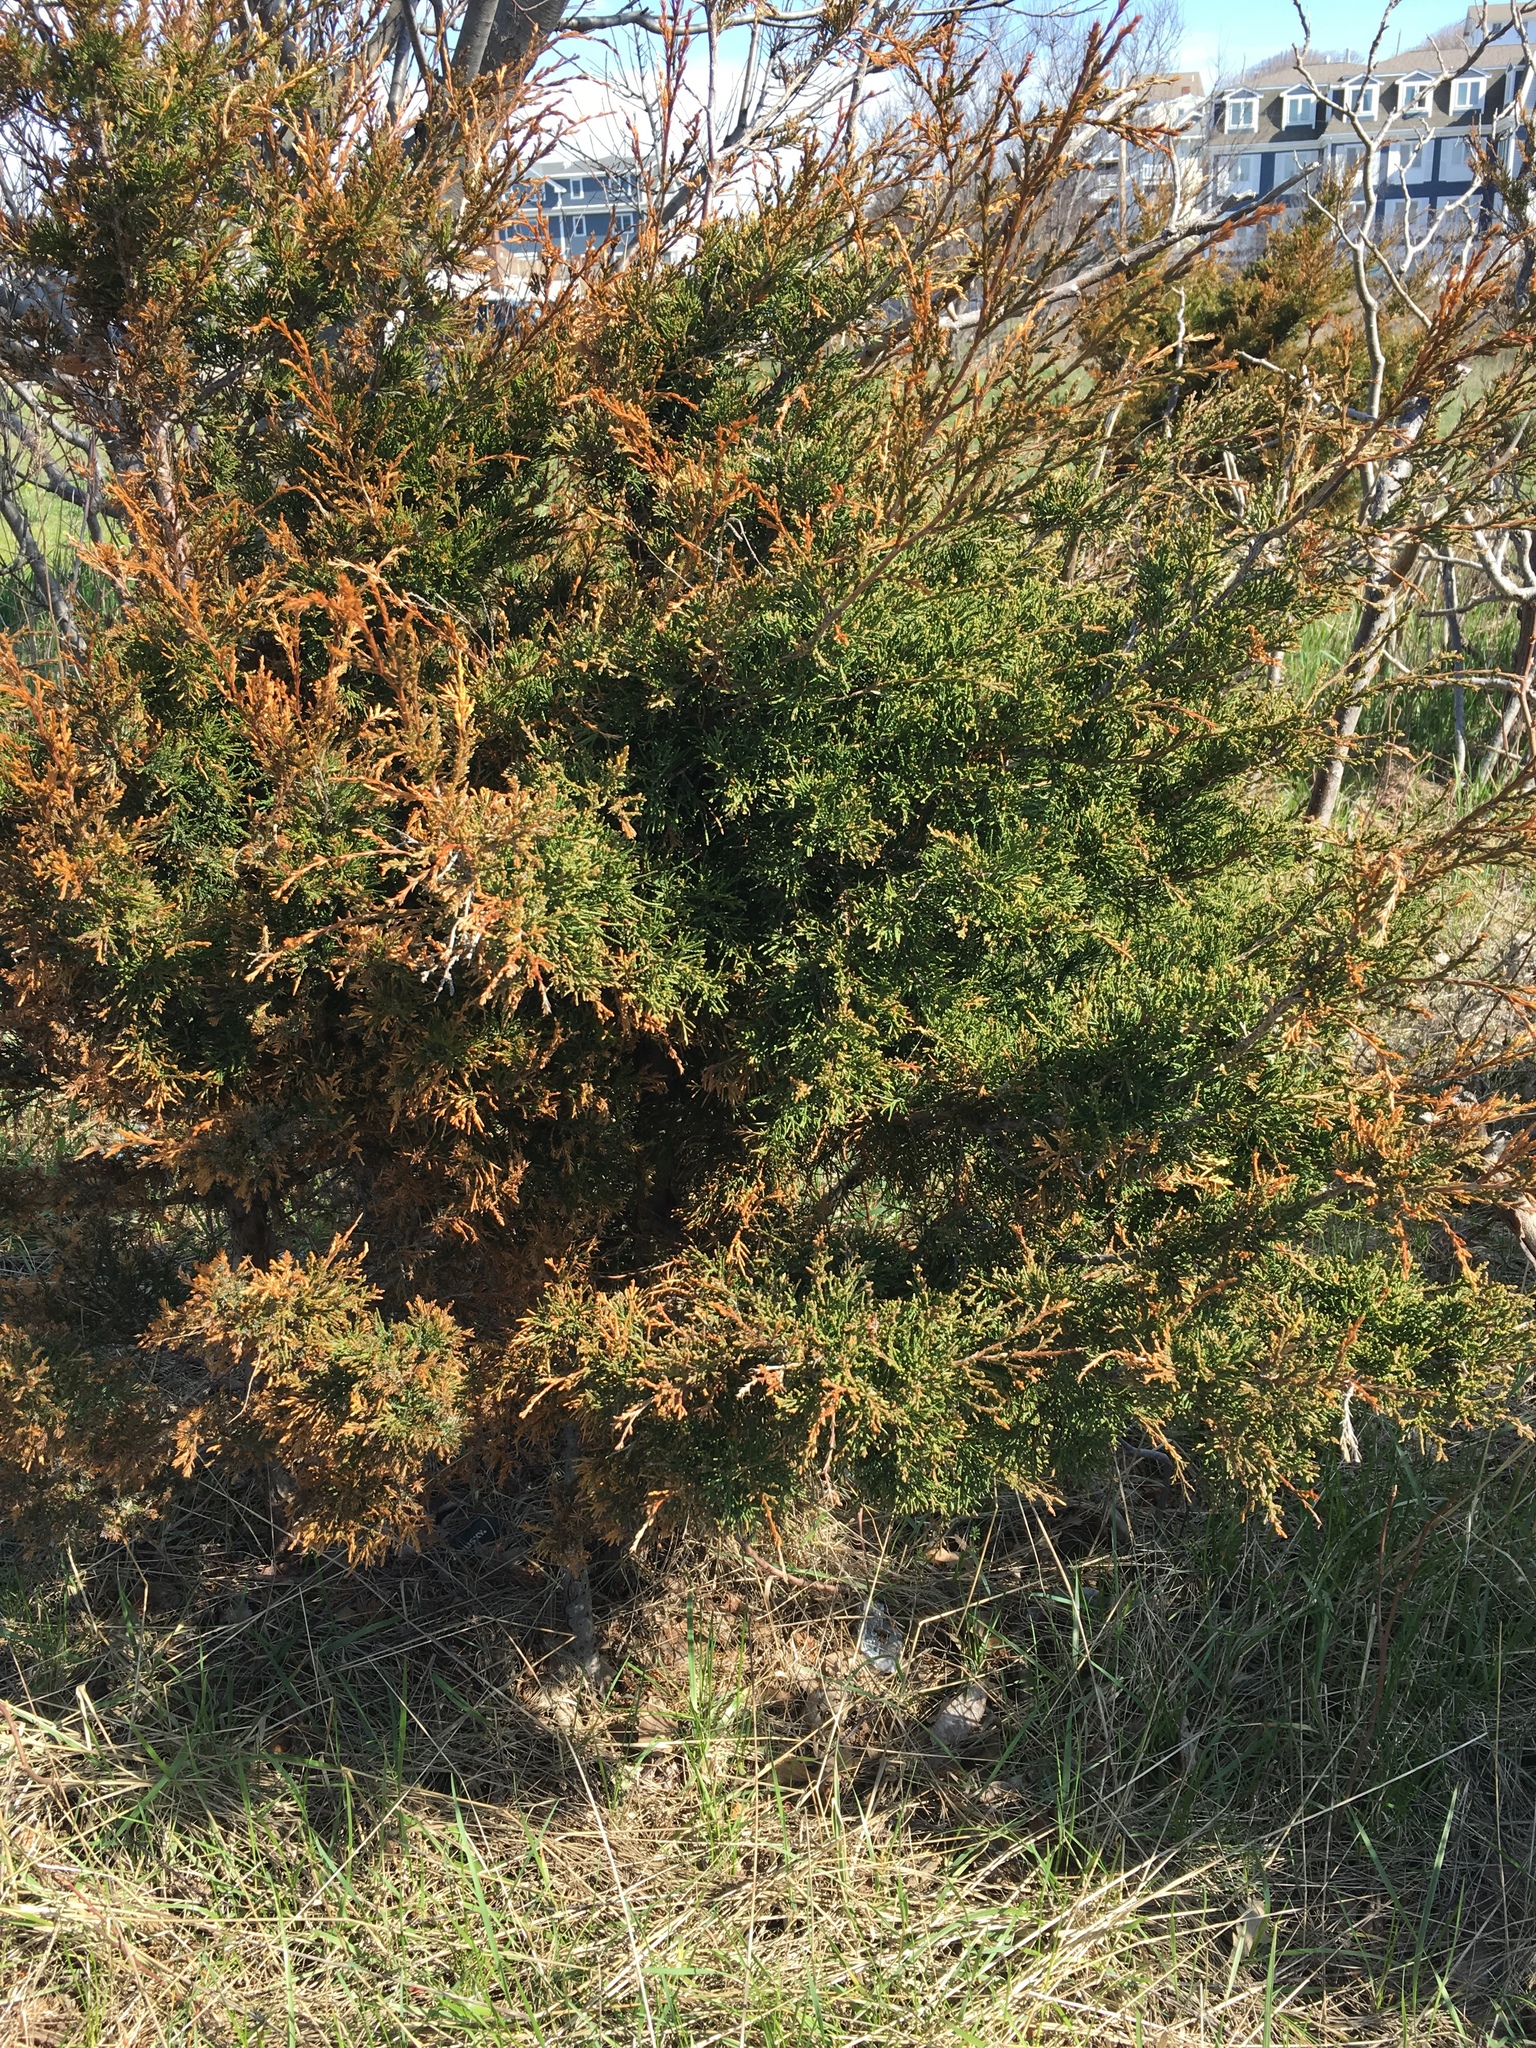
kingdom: Plantae
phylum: Tracheophyta
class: Pinopsida
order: Pinales
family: Cupressaceae
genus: Juniperus
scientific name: Juniperus virginiana
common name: Red juniper
